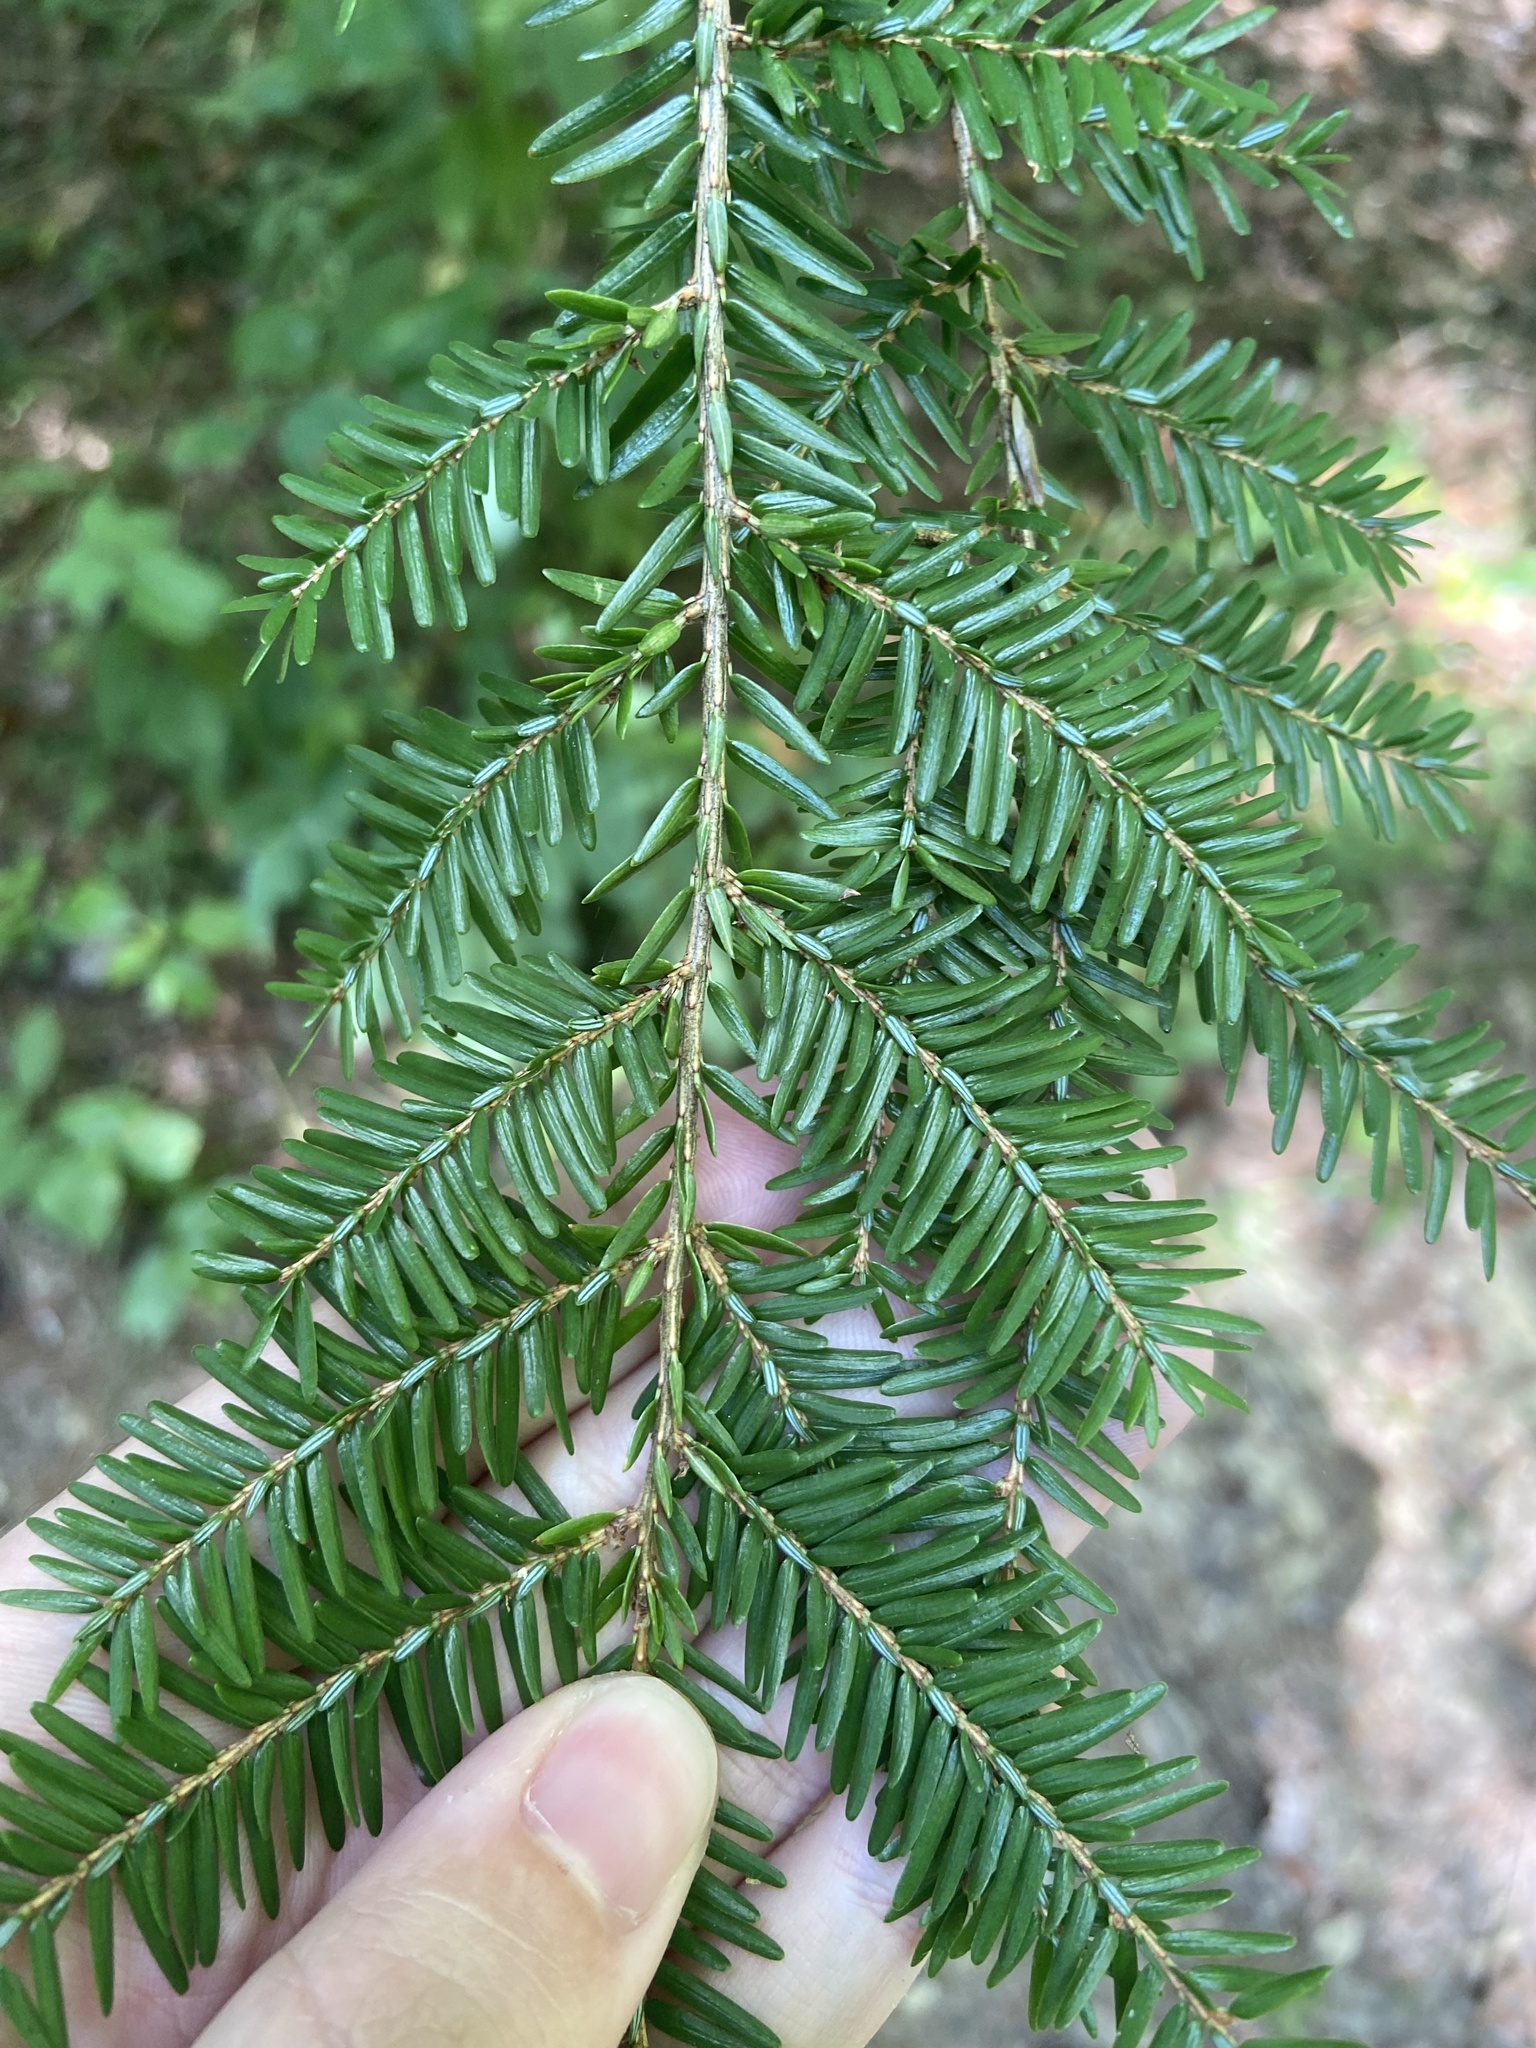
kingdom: Plantae
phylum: Tracheophyta
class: Pinopsida
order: Pinales
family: Pinaceae
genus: Tsuga
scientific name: Tsuga canadensis
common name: Eastern hemlock
